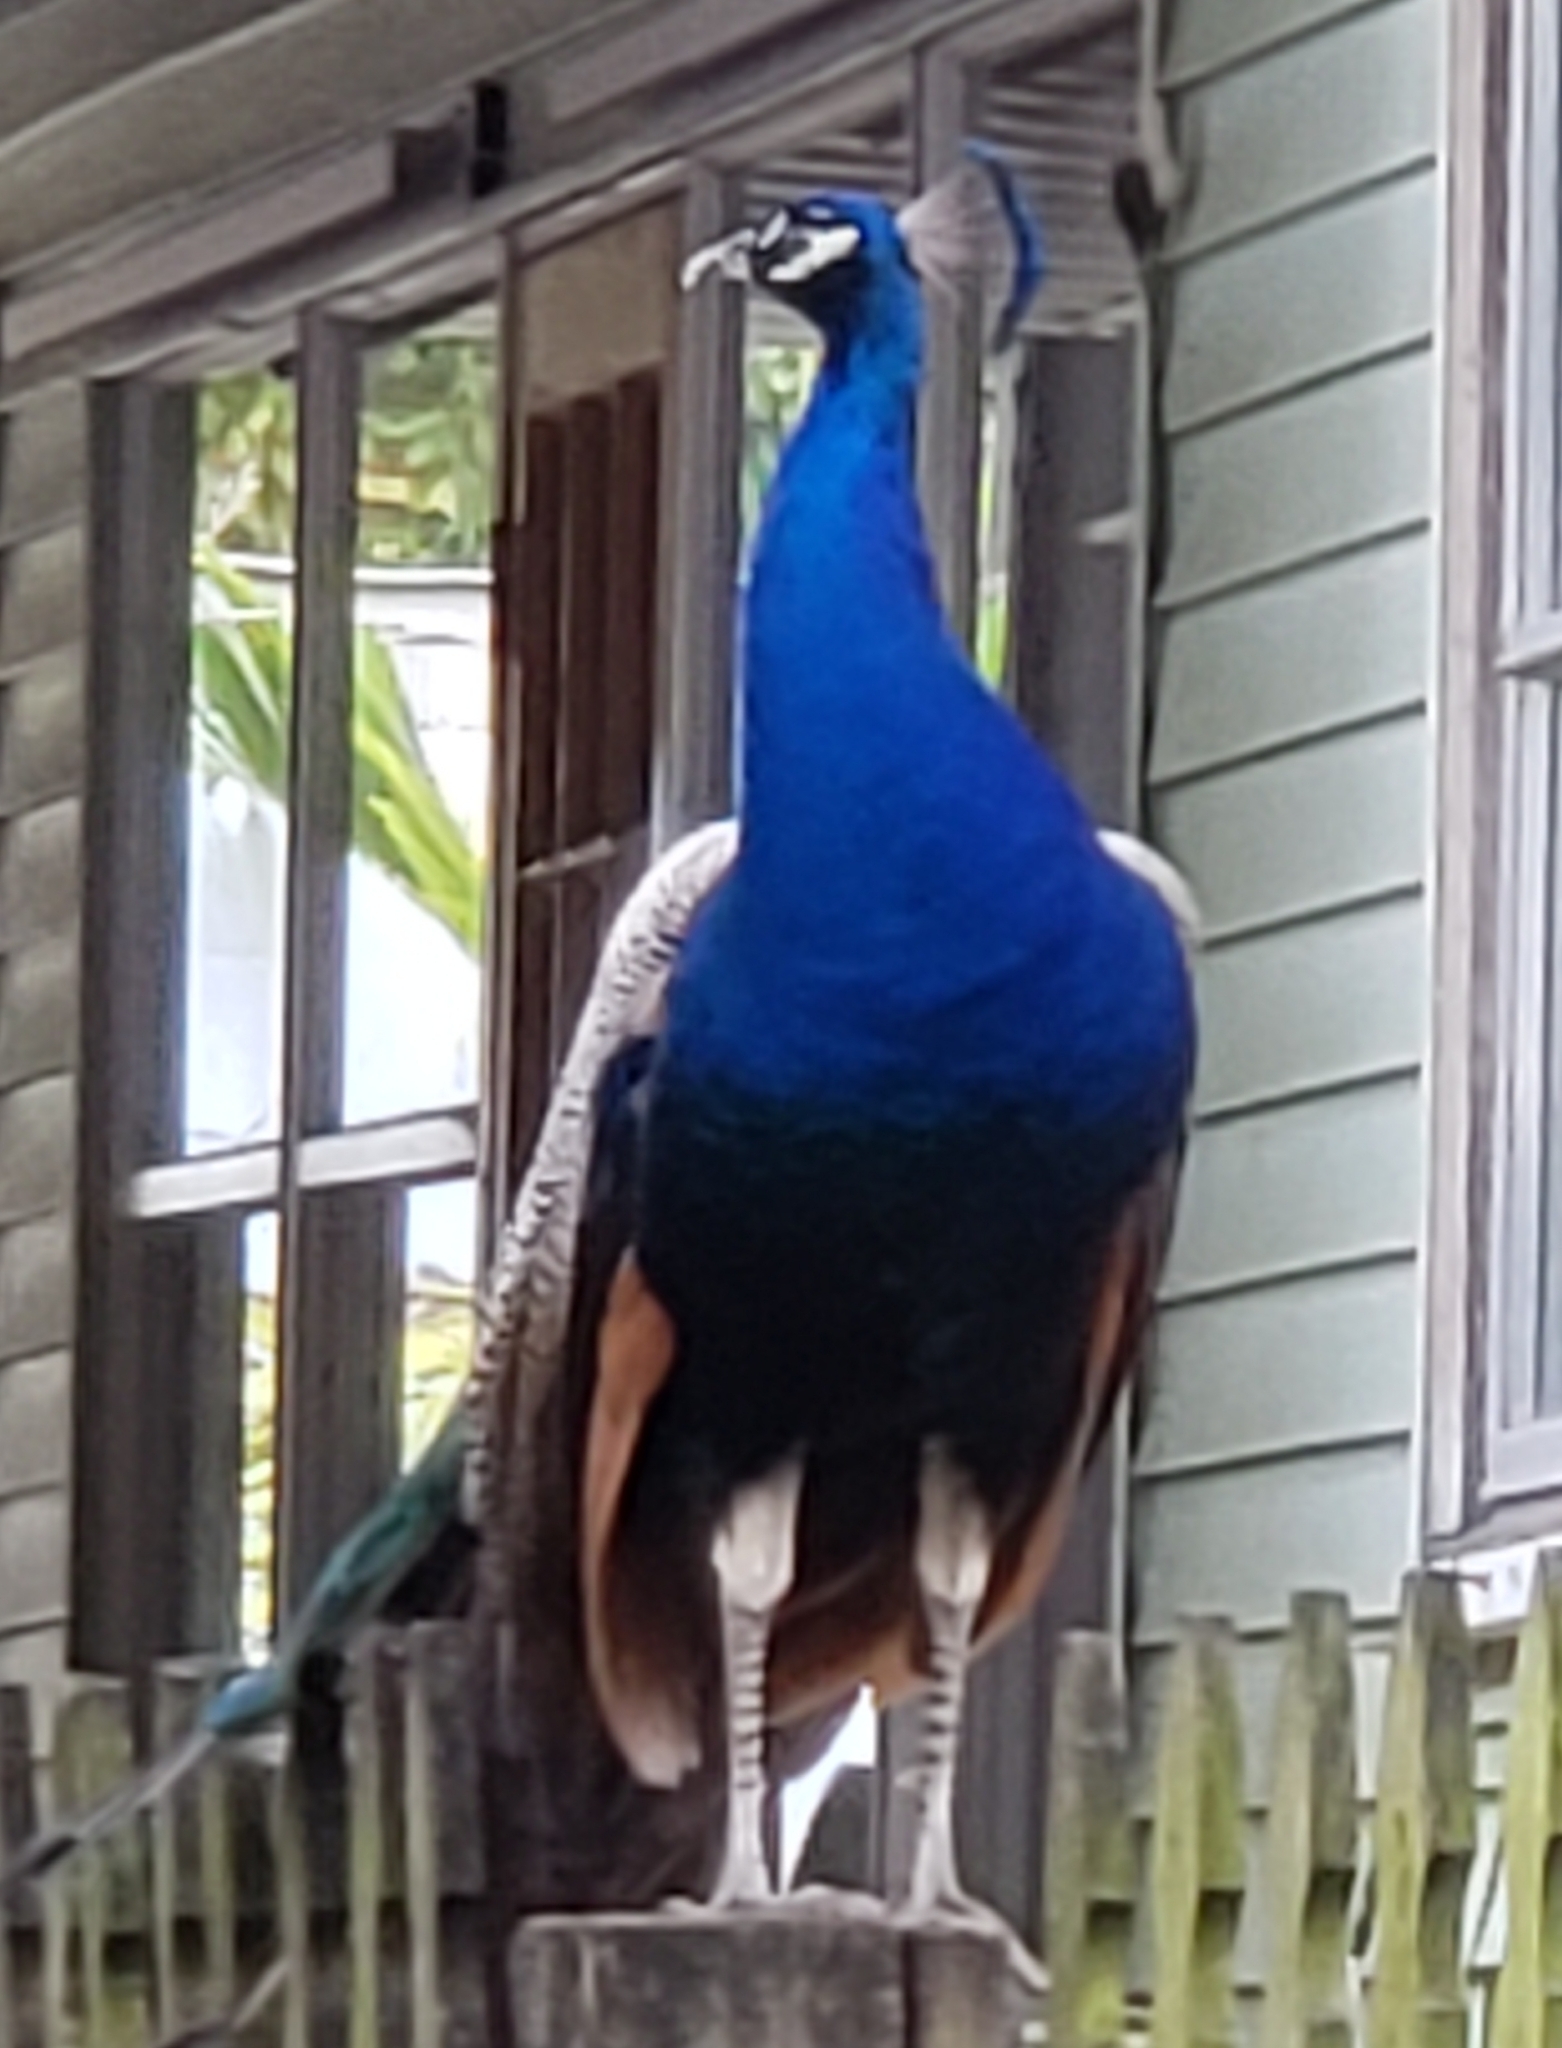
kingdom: Animalia
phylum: Chordata
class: Aves
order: Galliformes
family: Phasianidae
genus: Pavo
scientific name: Pavo cristatus
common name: Indian peafowl
